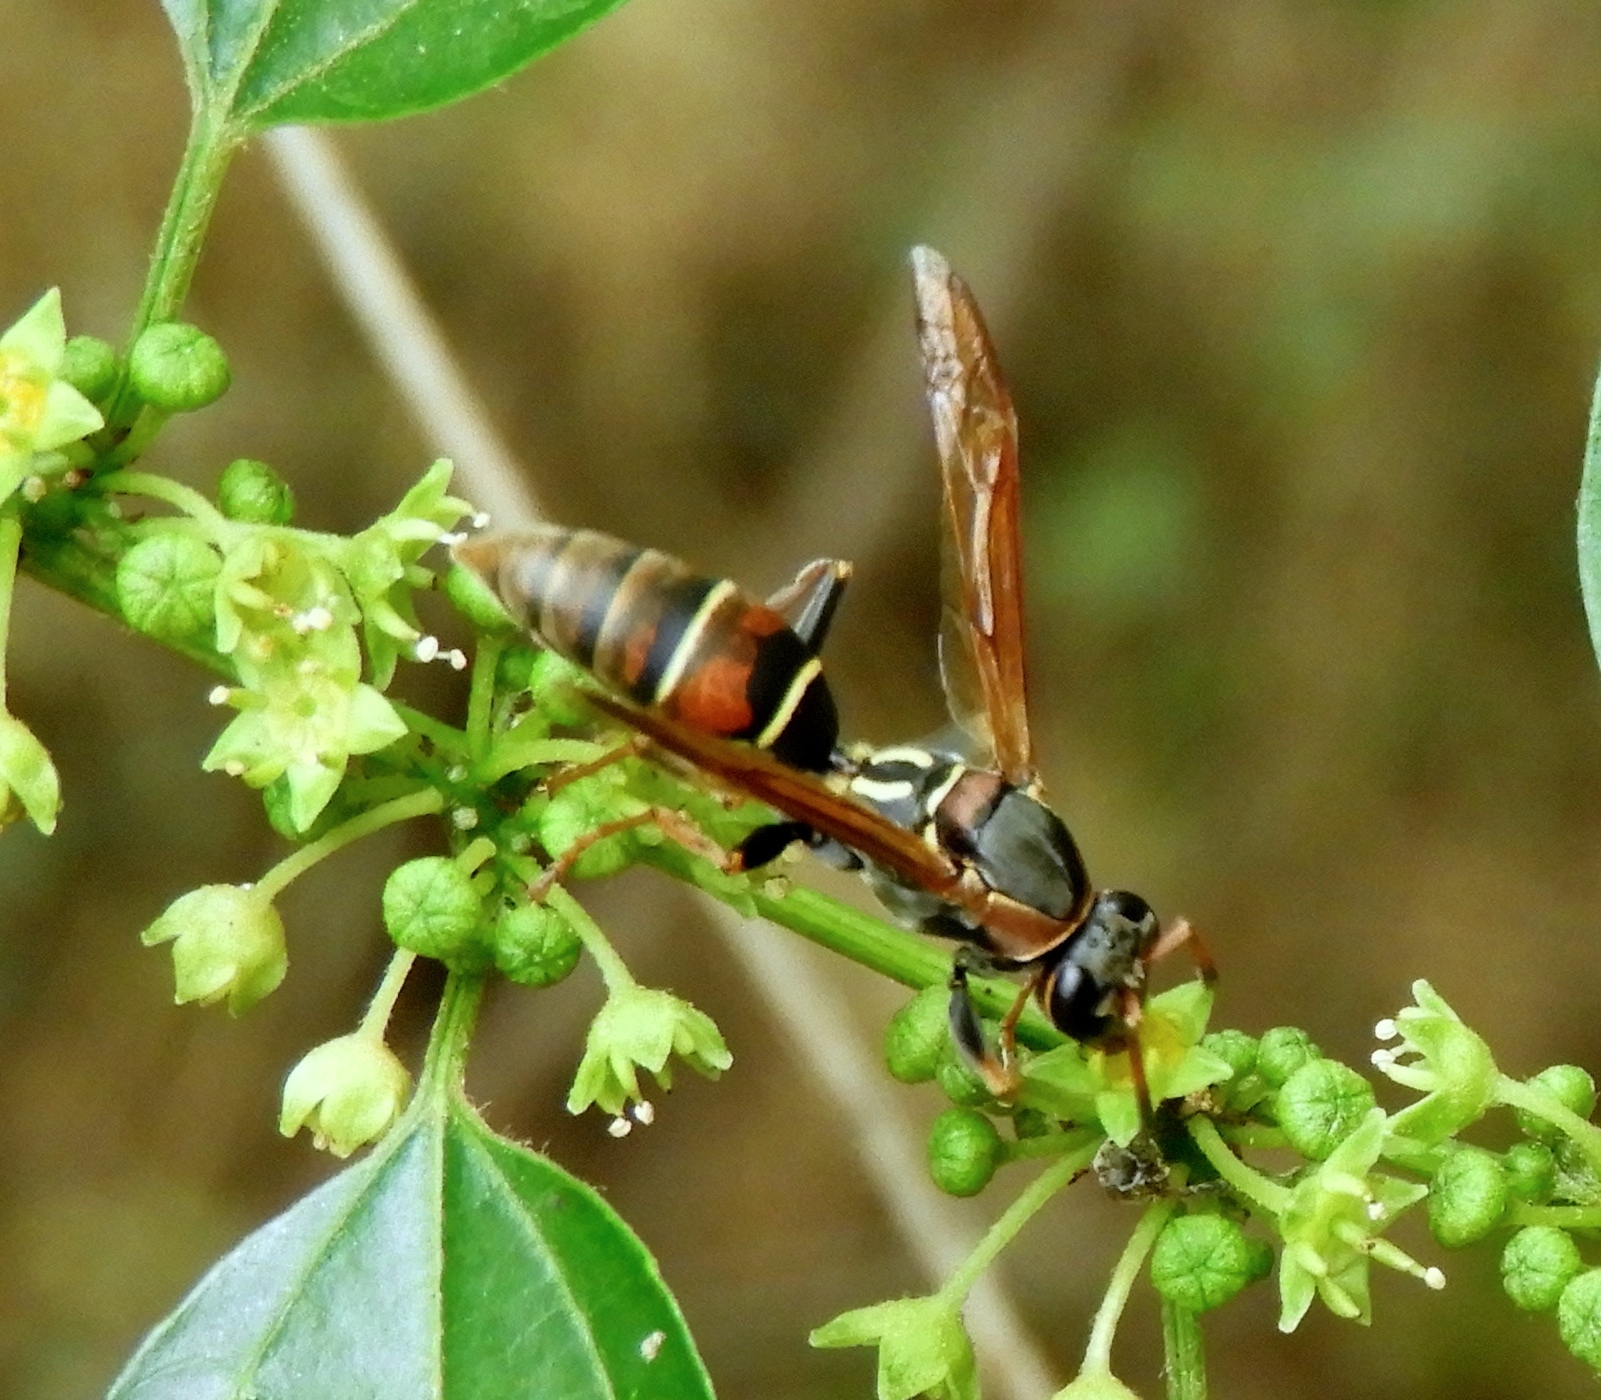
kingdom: Animalia
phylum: Arthropoda
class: Insecta
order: Hymenoptera
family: Eumenidae
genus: Polistes
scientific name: Polistes pacificus
